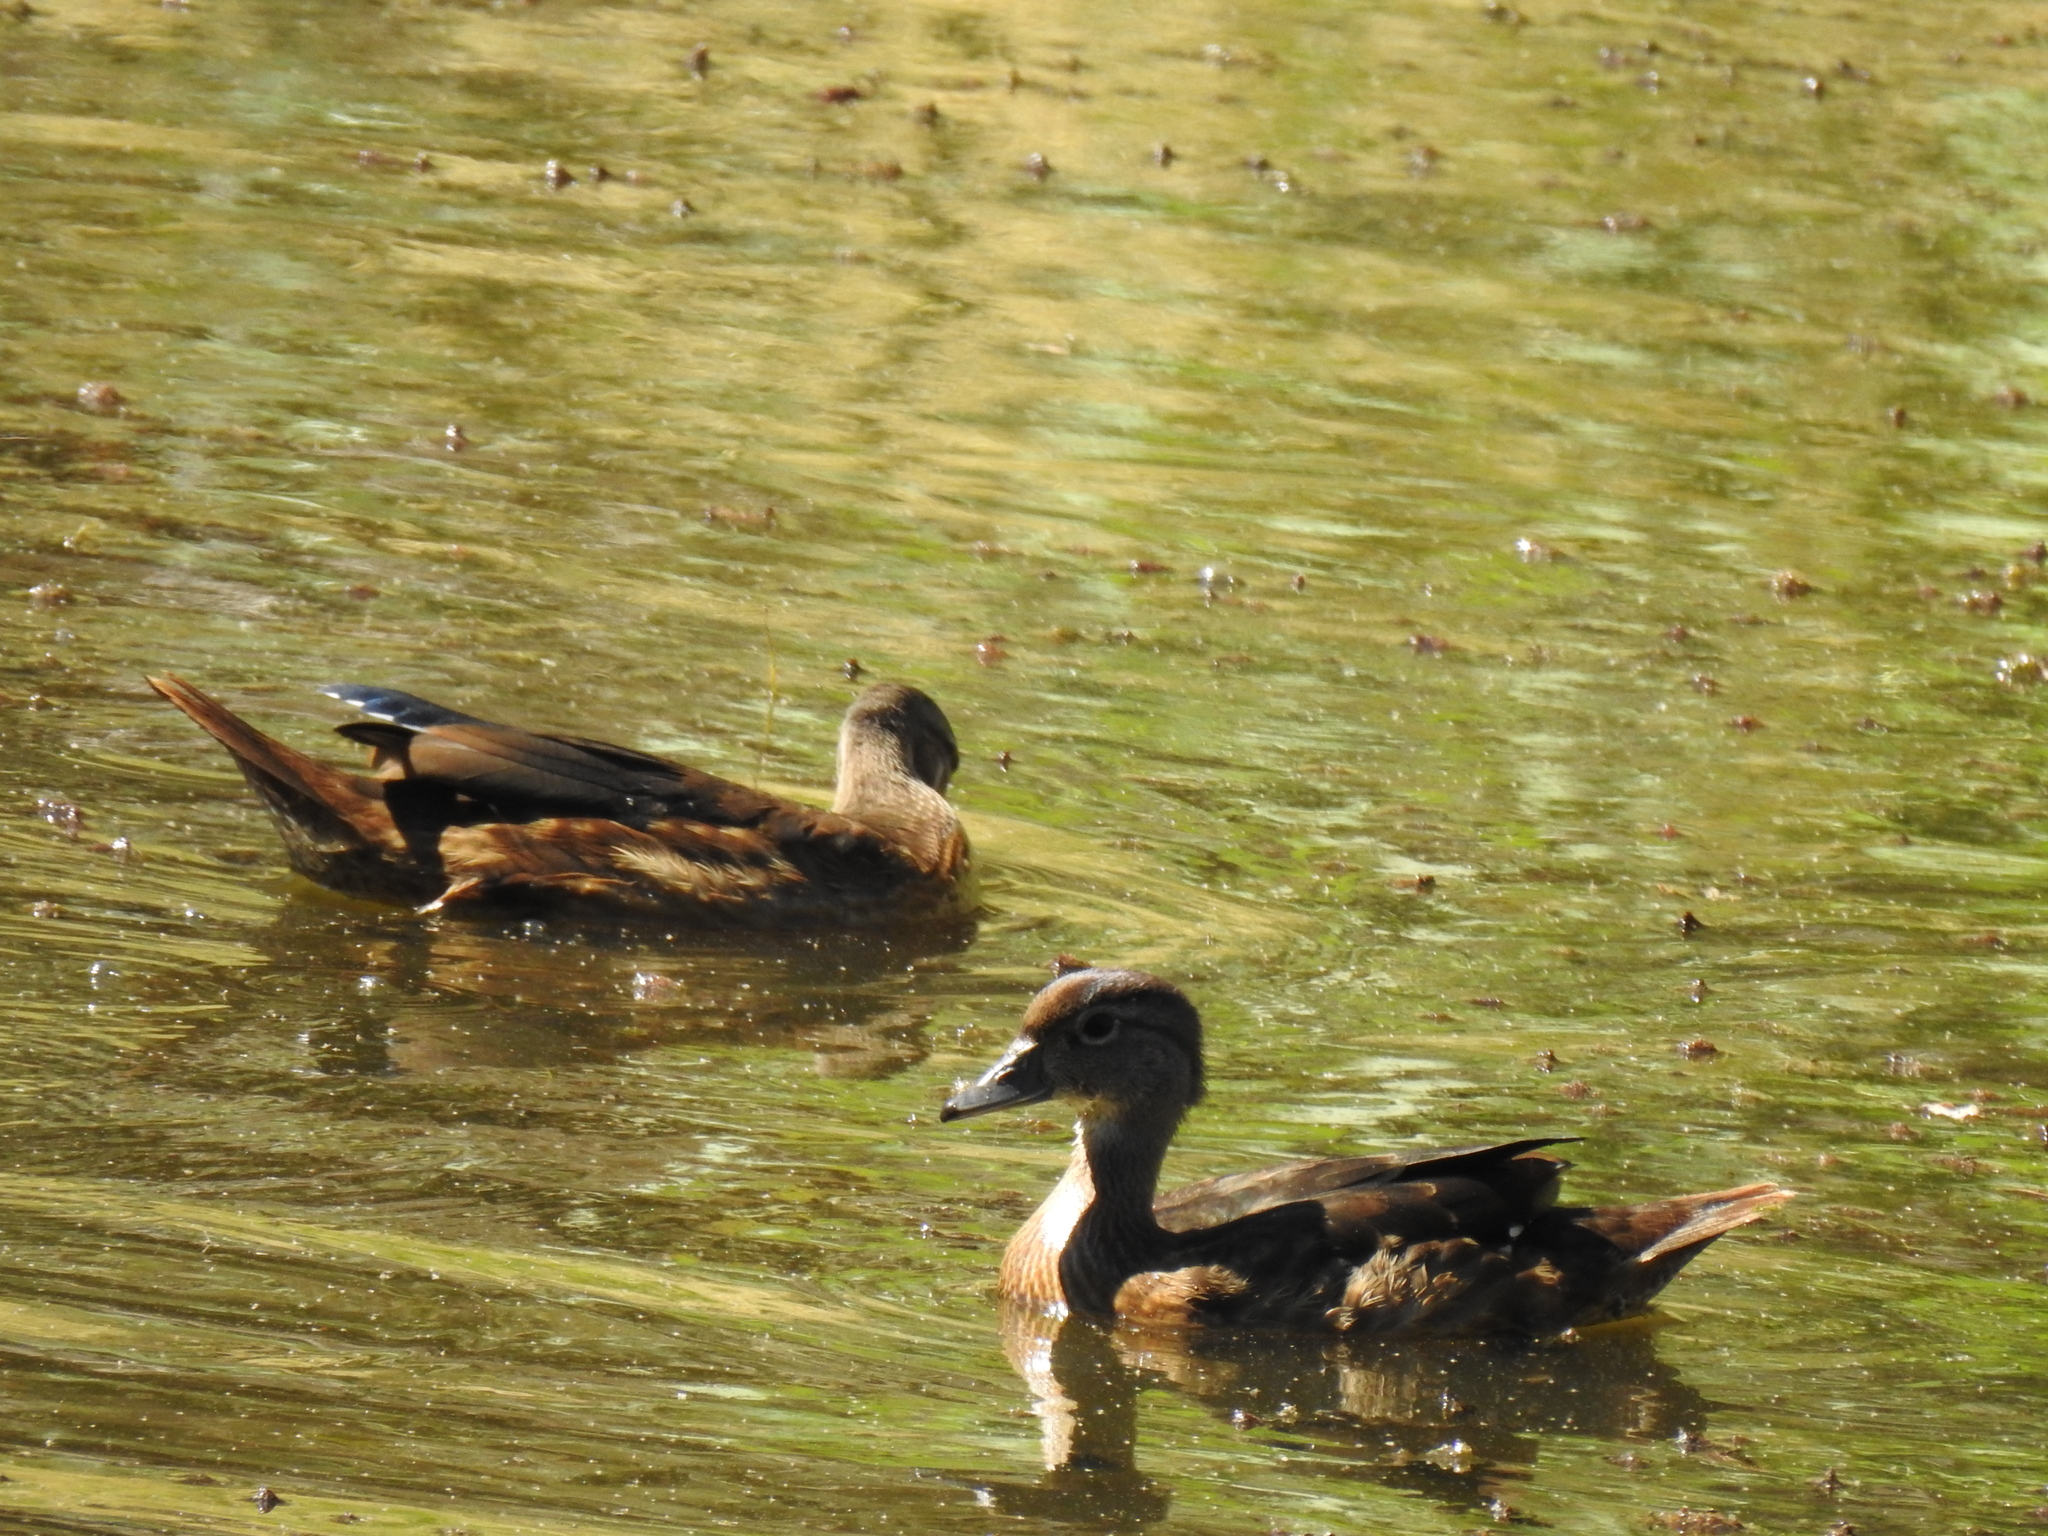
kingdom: Animalia
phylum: Chordata
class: Aves
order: Anseriformes
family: Anatidae
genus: Aix
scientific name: Aix sponsa
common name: Wood duck
